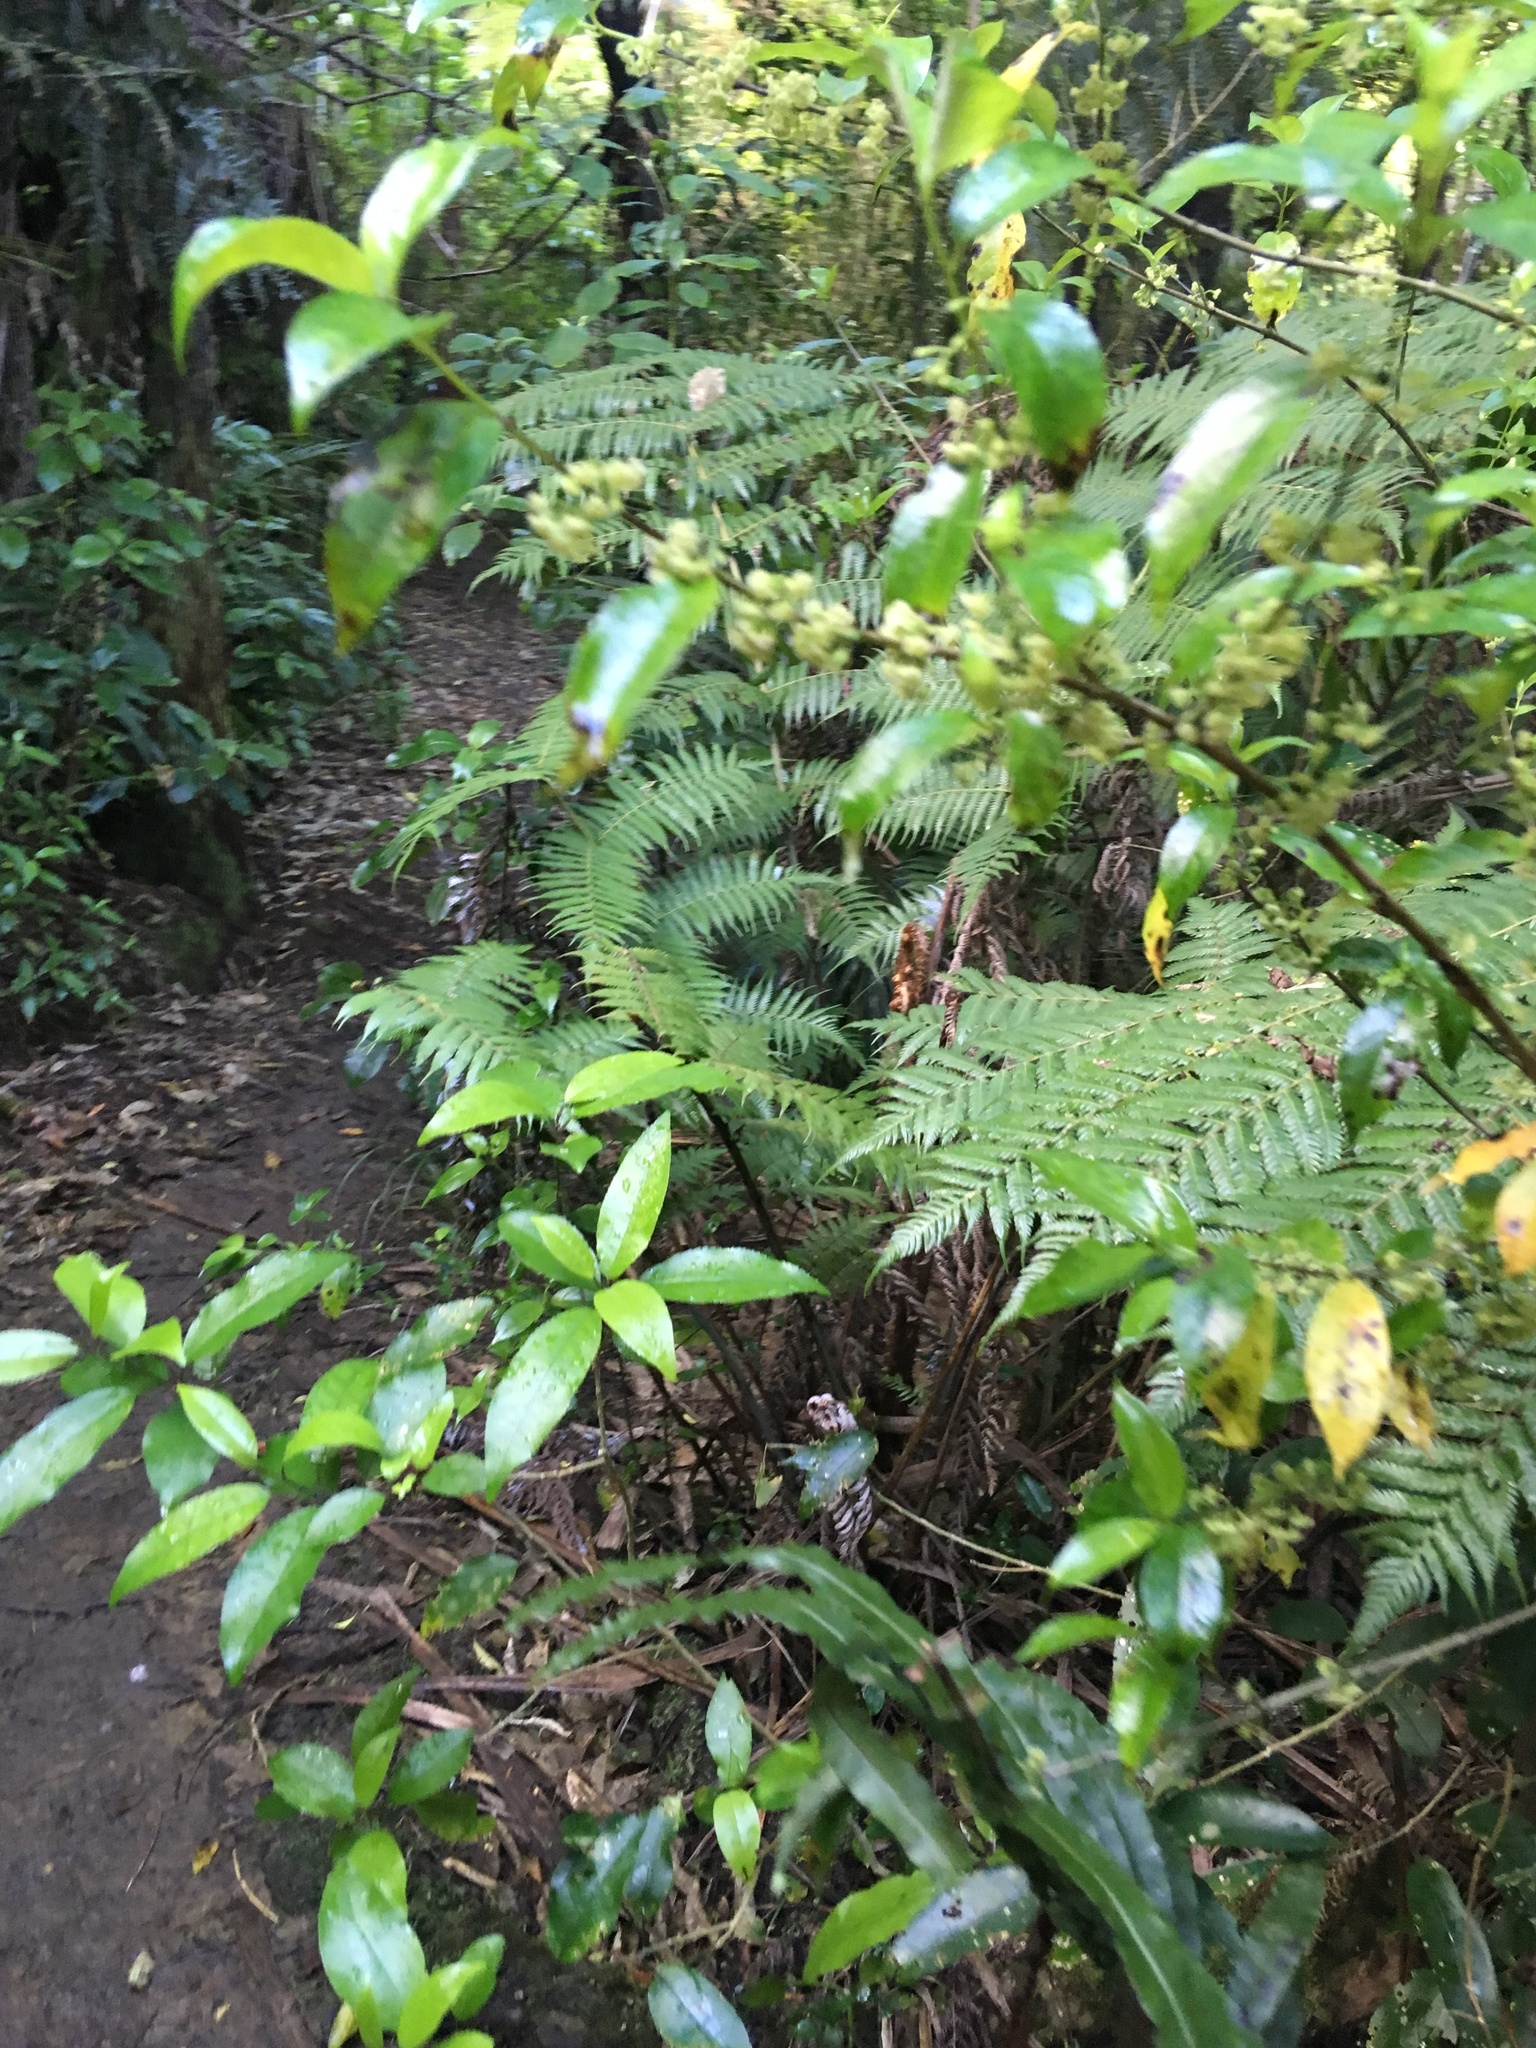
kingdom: Plantae
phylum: Tracheophyta
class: Magnoliopsida
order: Gentianales
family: Loganiaceae
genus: Geniostoma
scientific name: Geniostoma ligustrifolium
